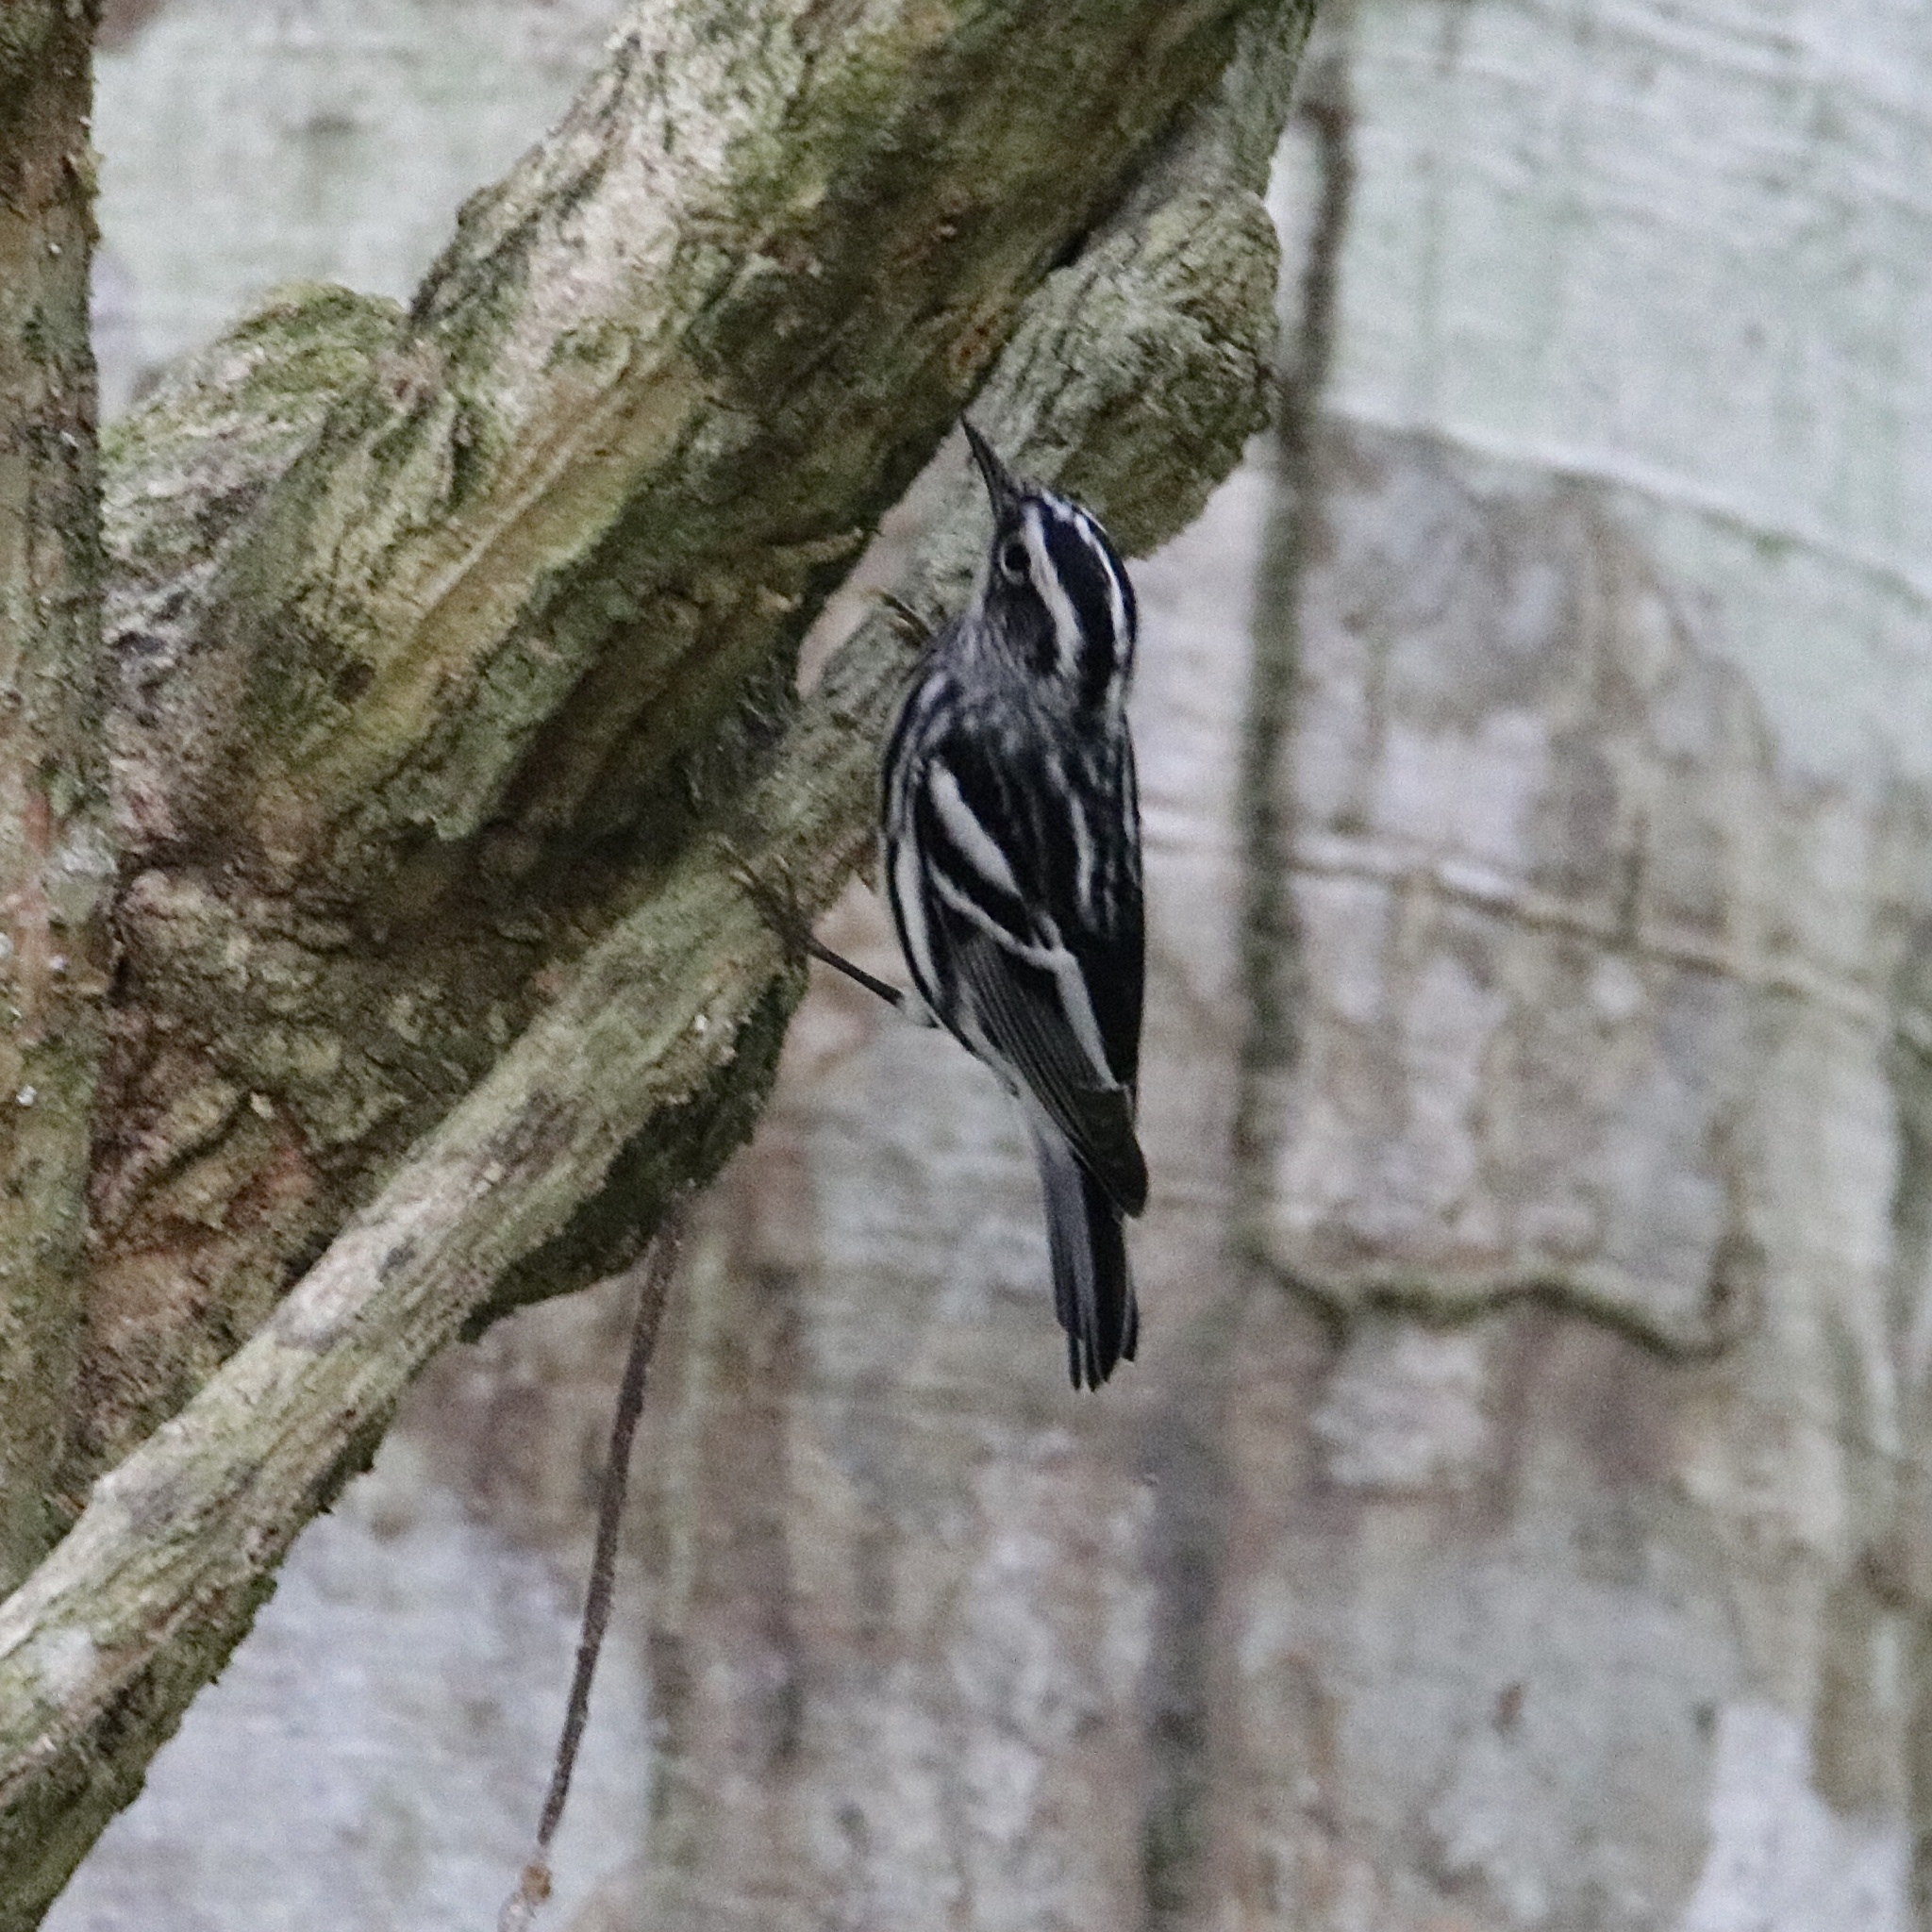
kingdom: Animalia
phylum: Chordata
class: Aves
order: Passeriformes
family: Parulidae
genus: Mniotilta
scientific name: Mniotilta varia
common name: Black-and-white warbler
